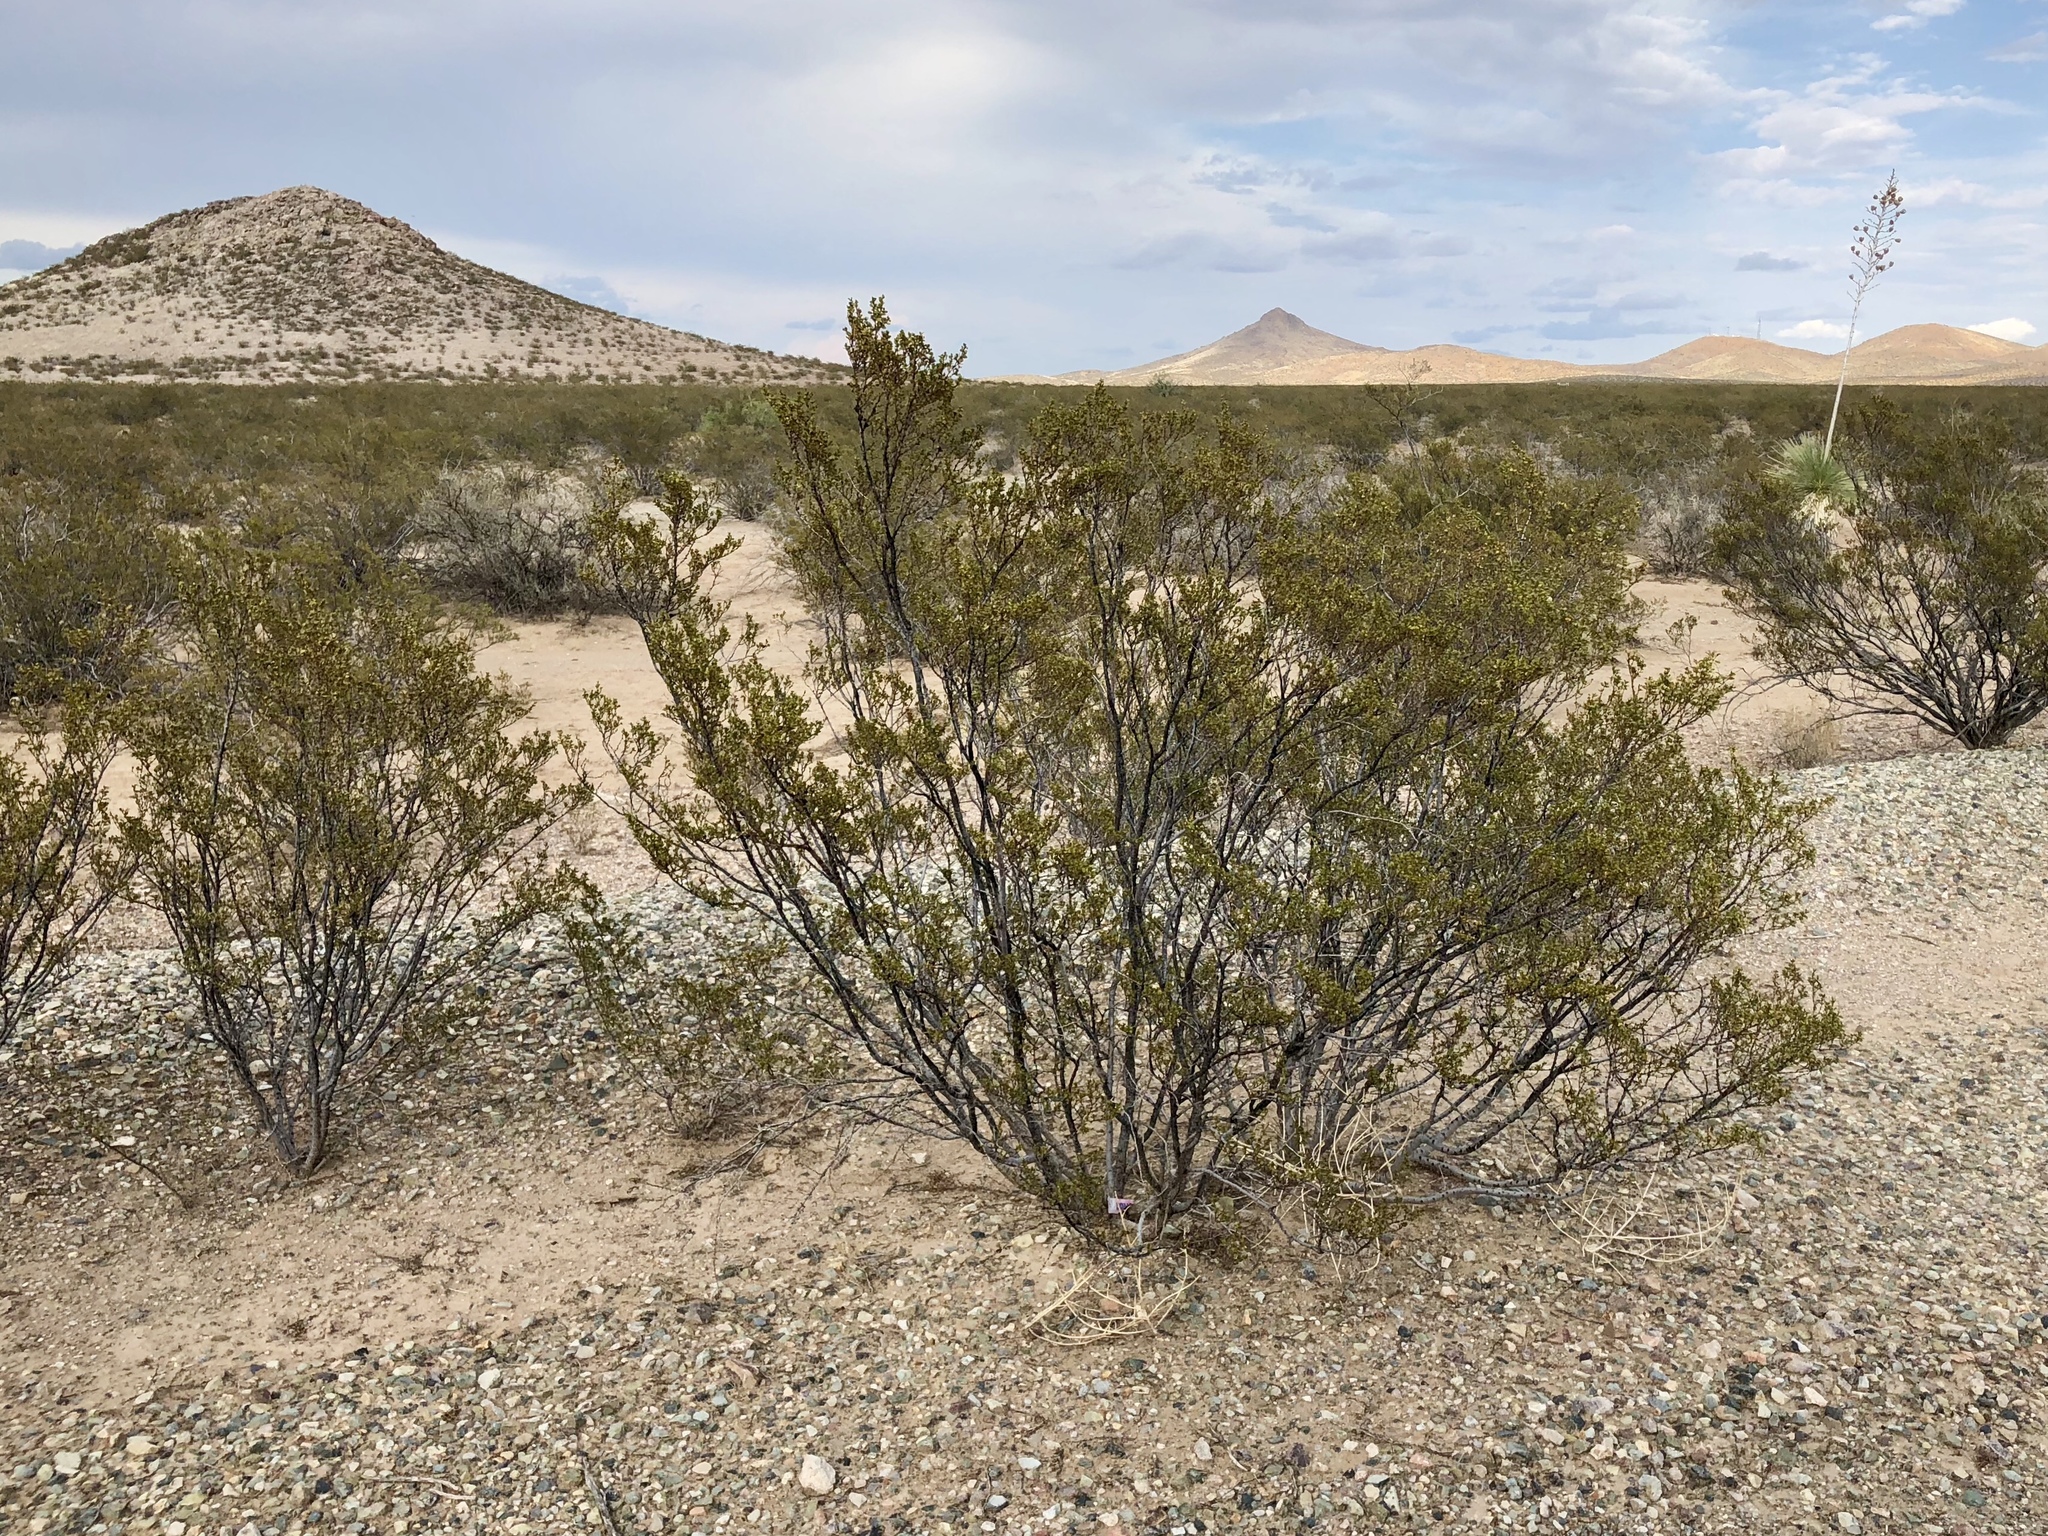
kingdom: Plantae
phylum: Tracheophyta
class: Magnoliopsida
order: Zygophyllales
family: Zygophyllaceae
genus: Larrea
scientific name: Larrea tridentata
